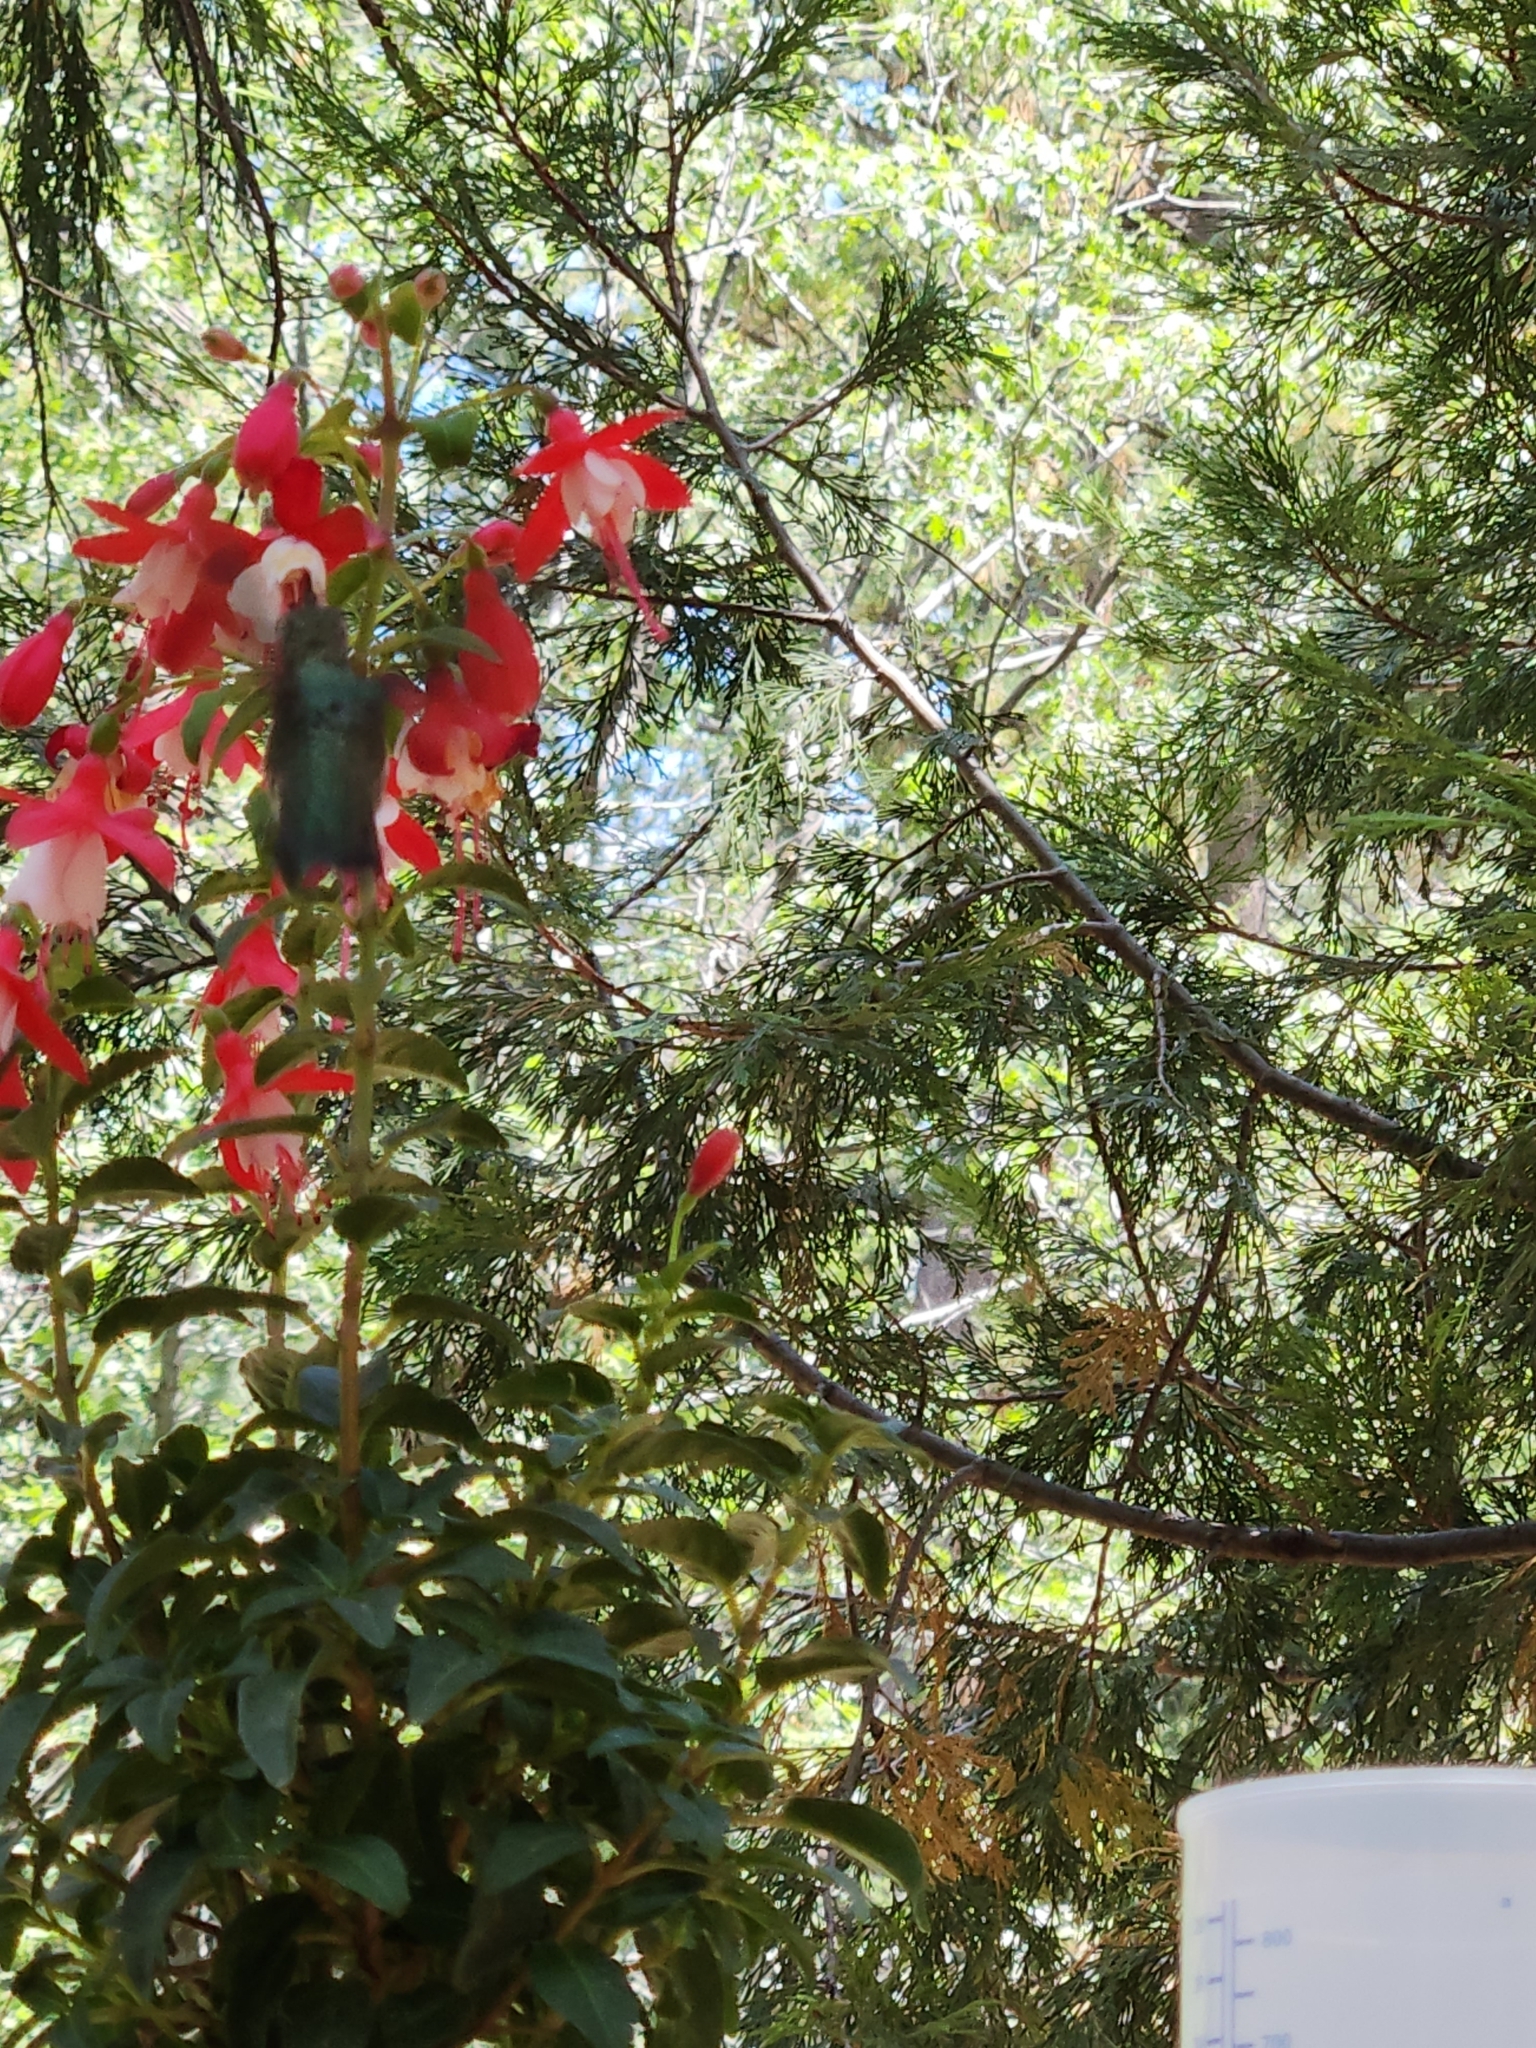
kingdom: Animalia
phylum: Chordata
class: Aves
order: Apodiformes
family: Trochilidae
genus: Calypte
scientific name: Calypte anna
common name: Anna's hummingbird
